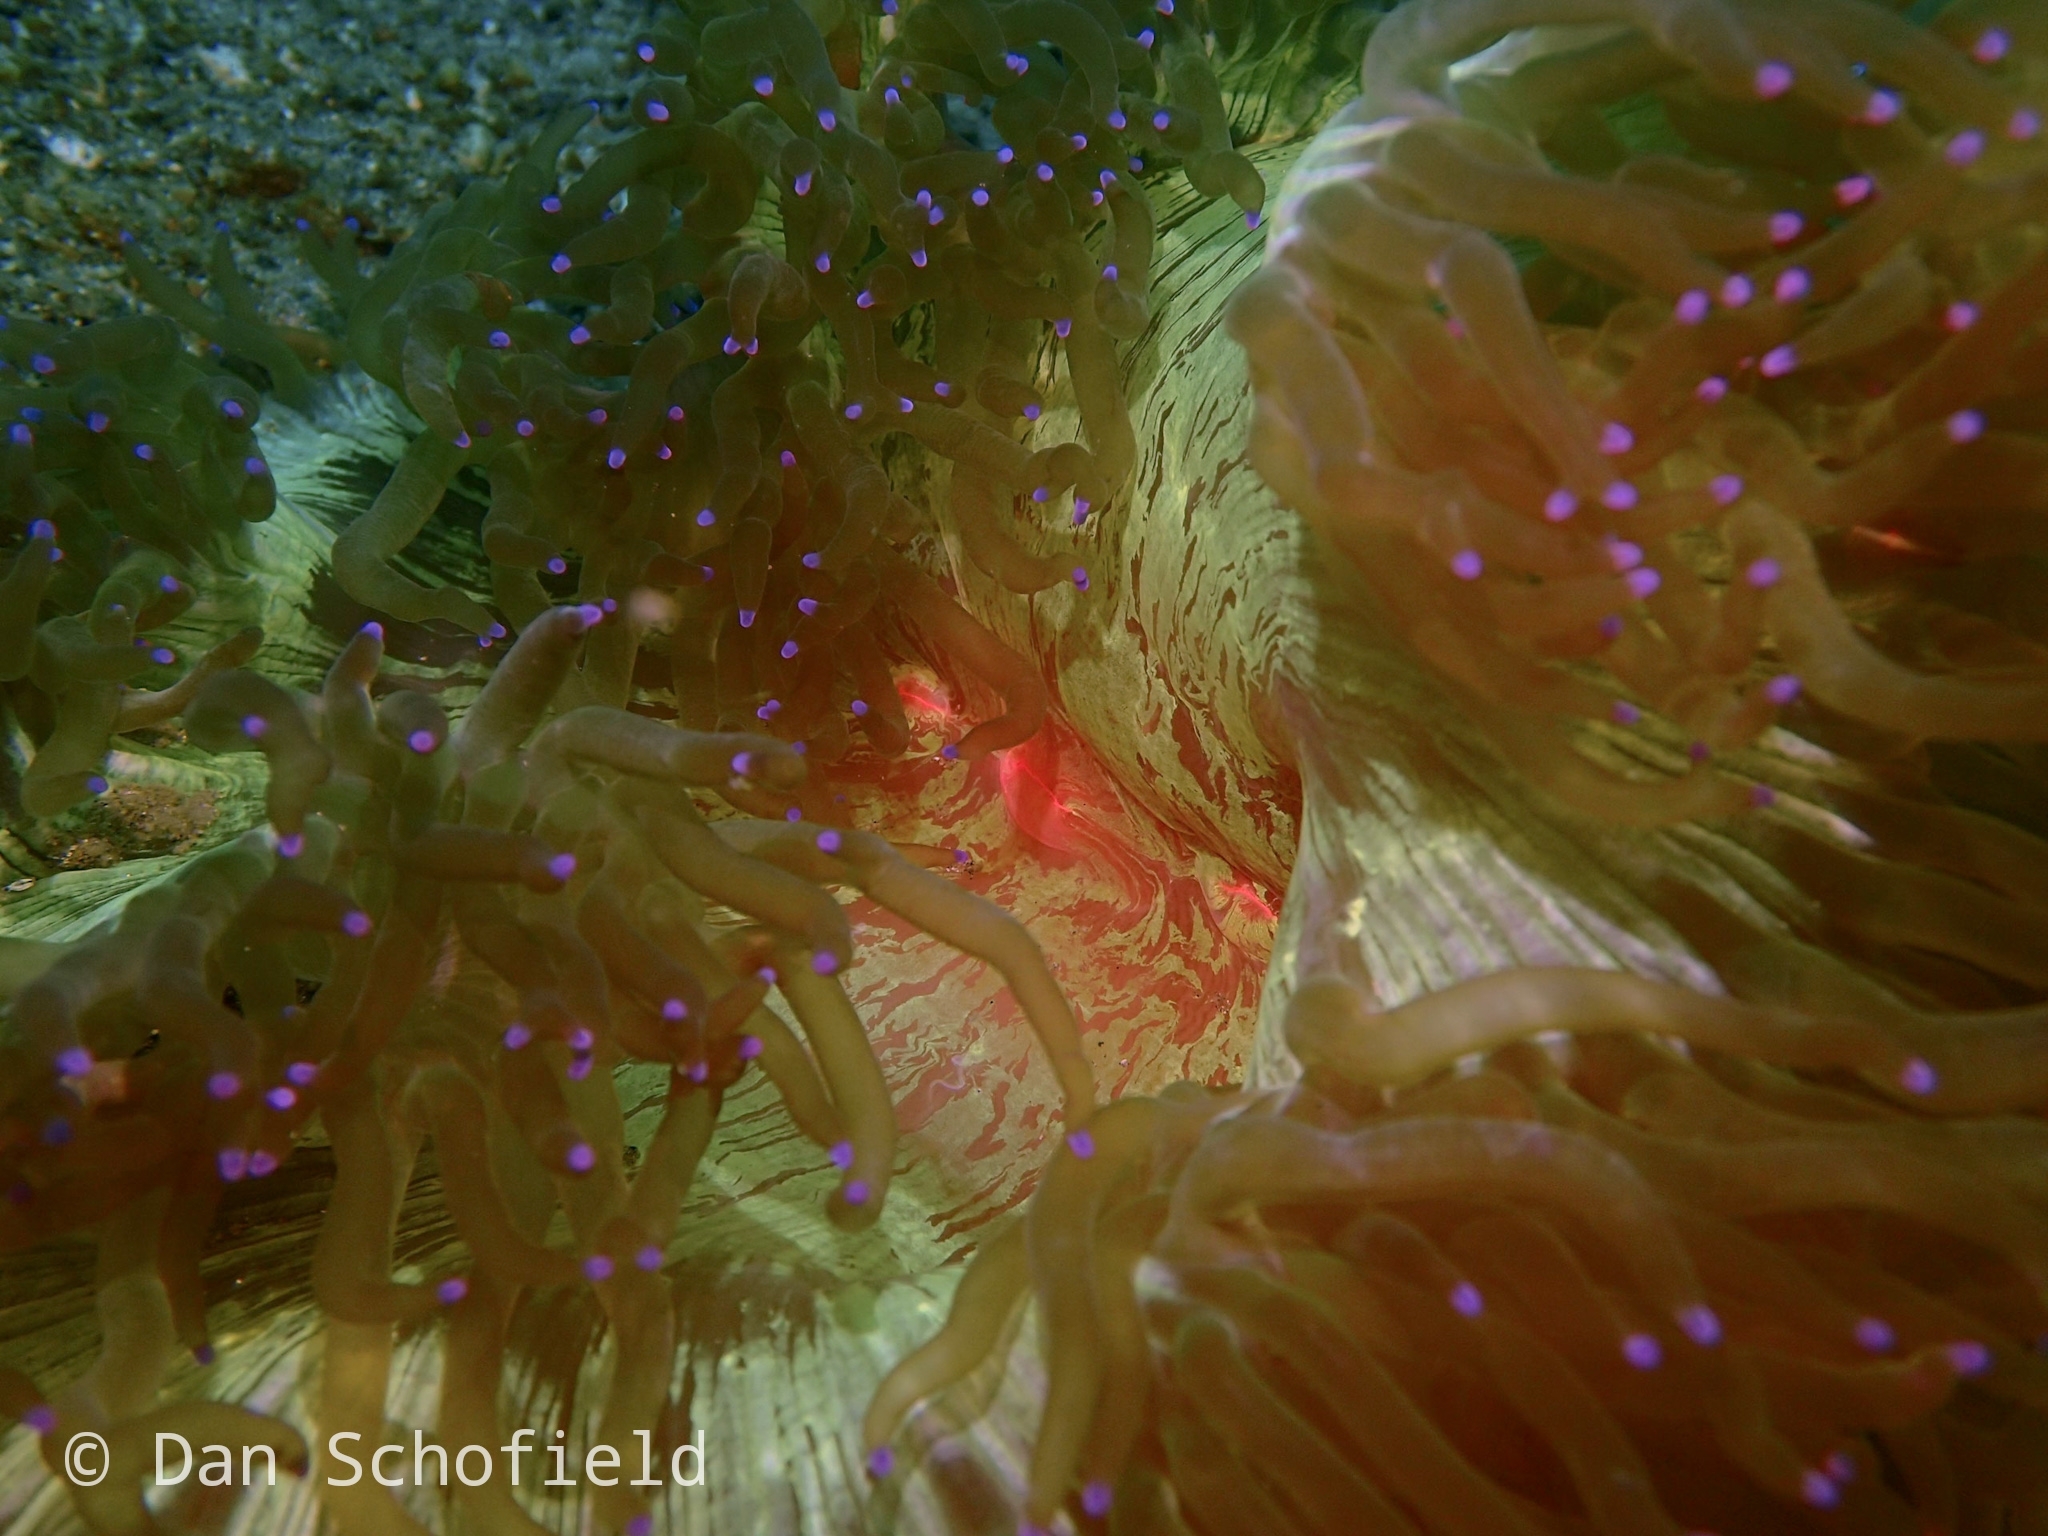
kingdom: Animalia
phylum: Cnidaria
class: Anthozoa
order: Scleractinia
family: Merulinidae
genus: Catalaphyllia
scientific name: Catalaphyllia jardinei
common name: Wonder coral
